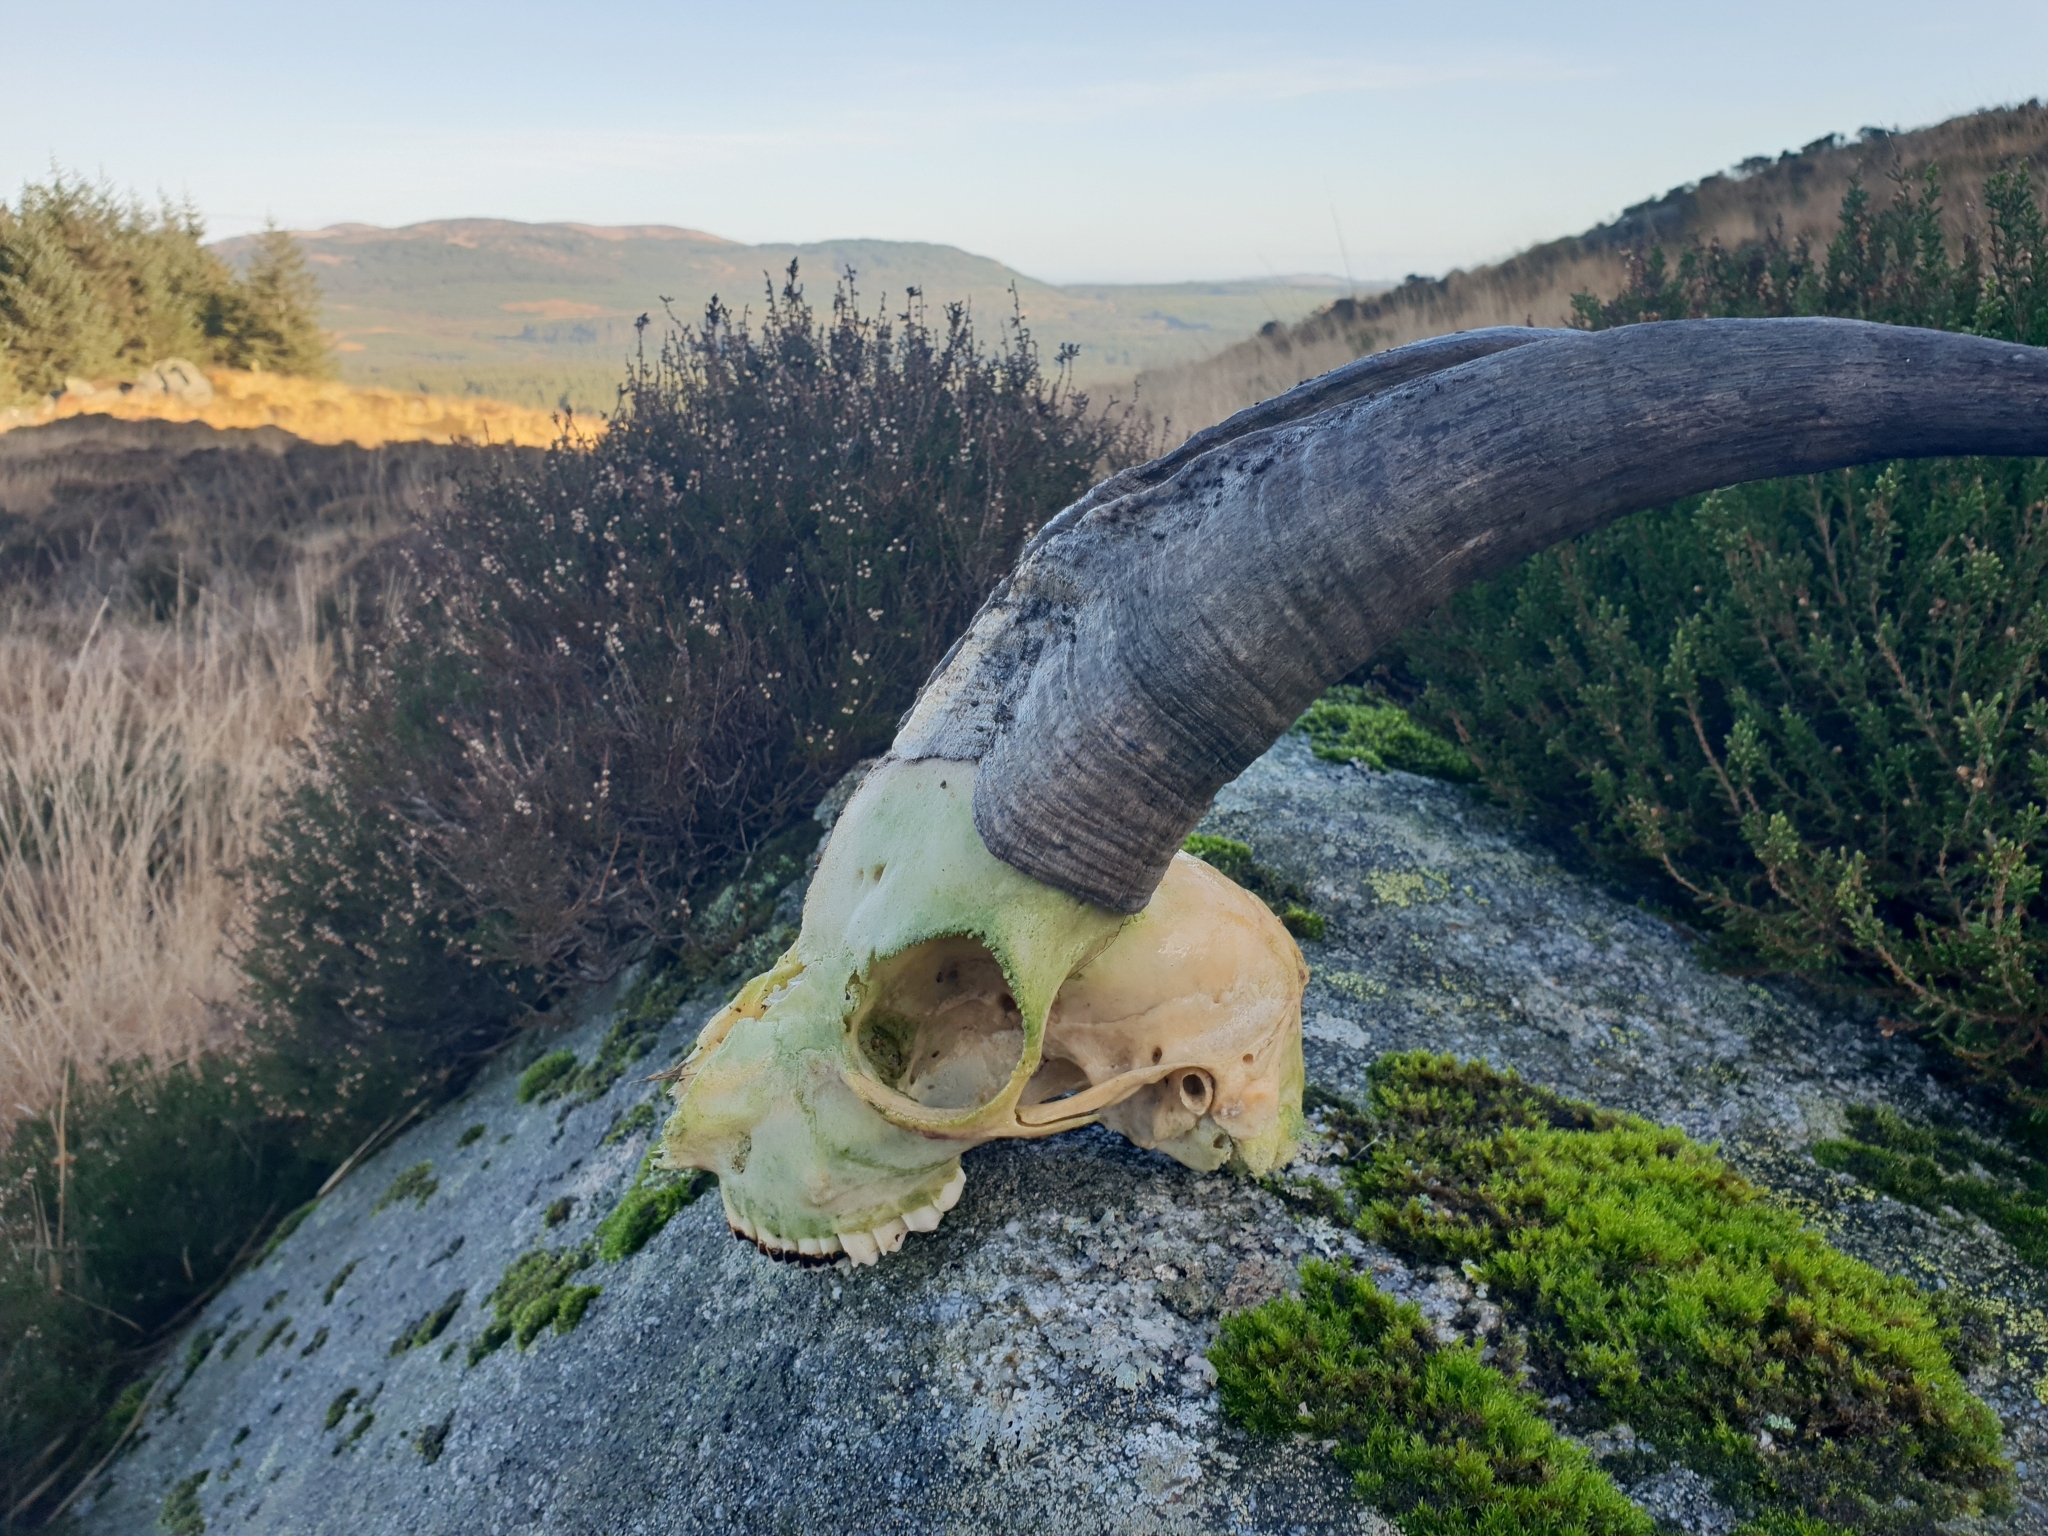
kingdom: Animalia
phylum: Chordata
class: Mammalia
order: Artiodactyla
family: Bovidae
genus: Capra
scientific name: Capra hircus
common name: Domestic goat
